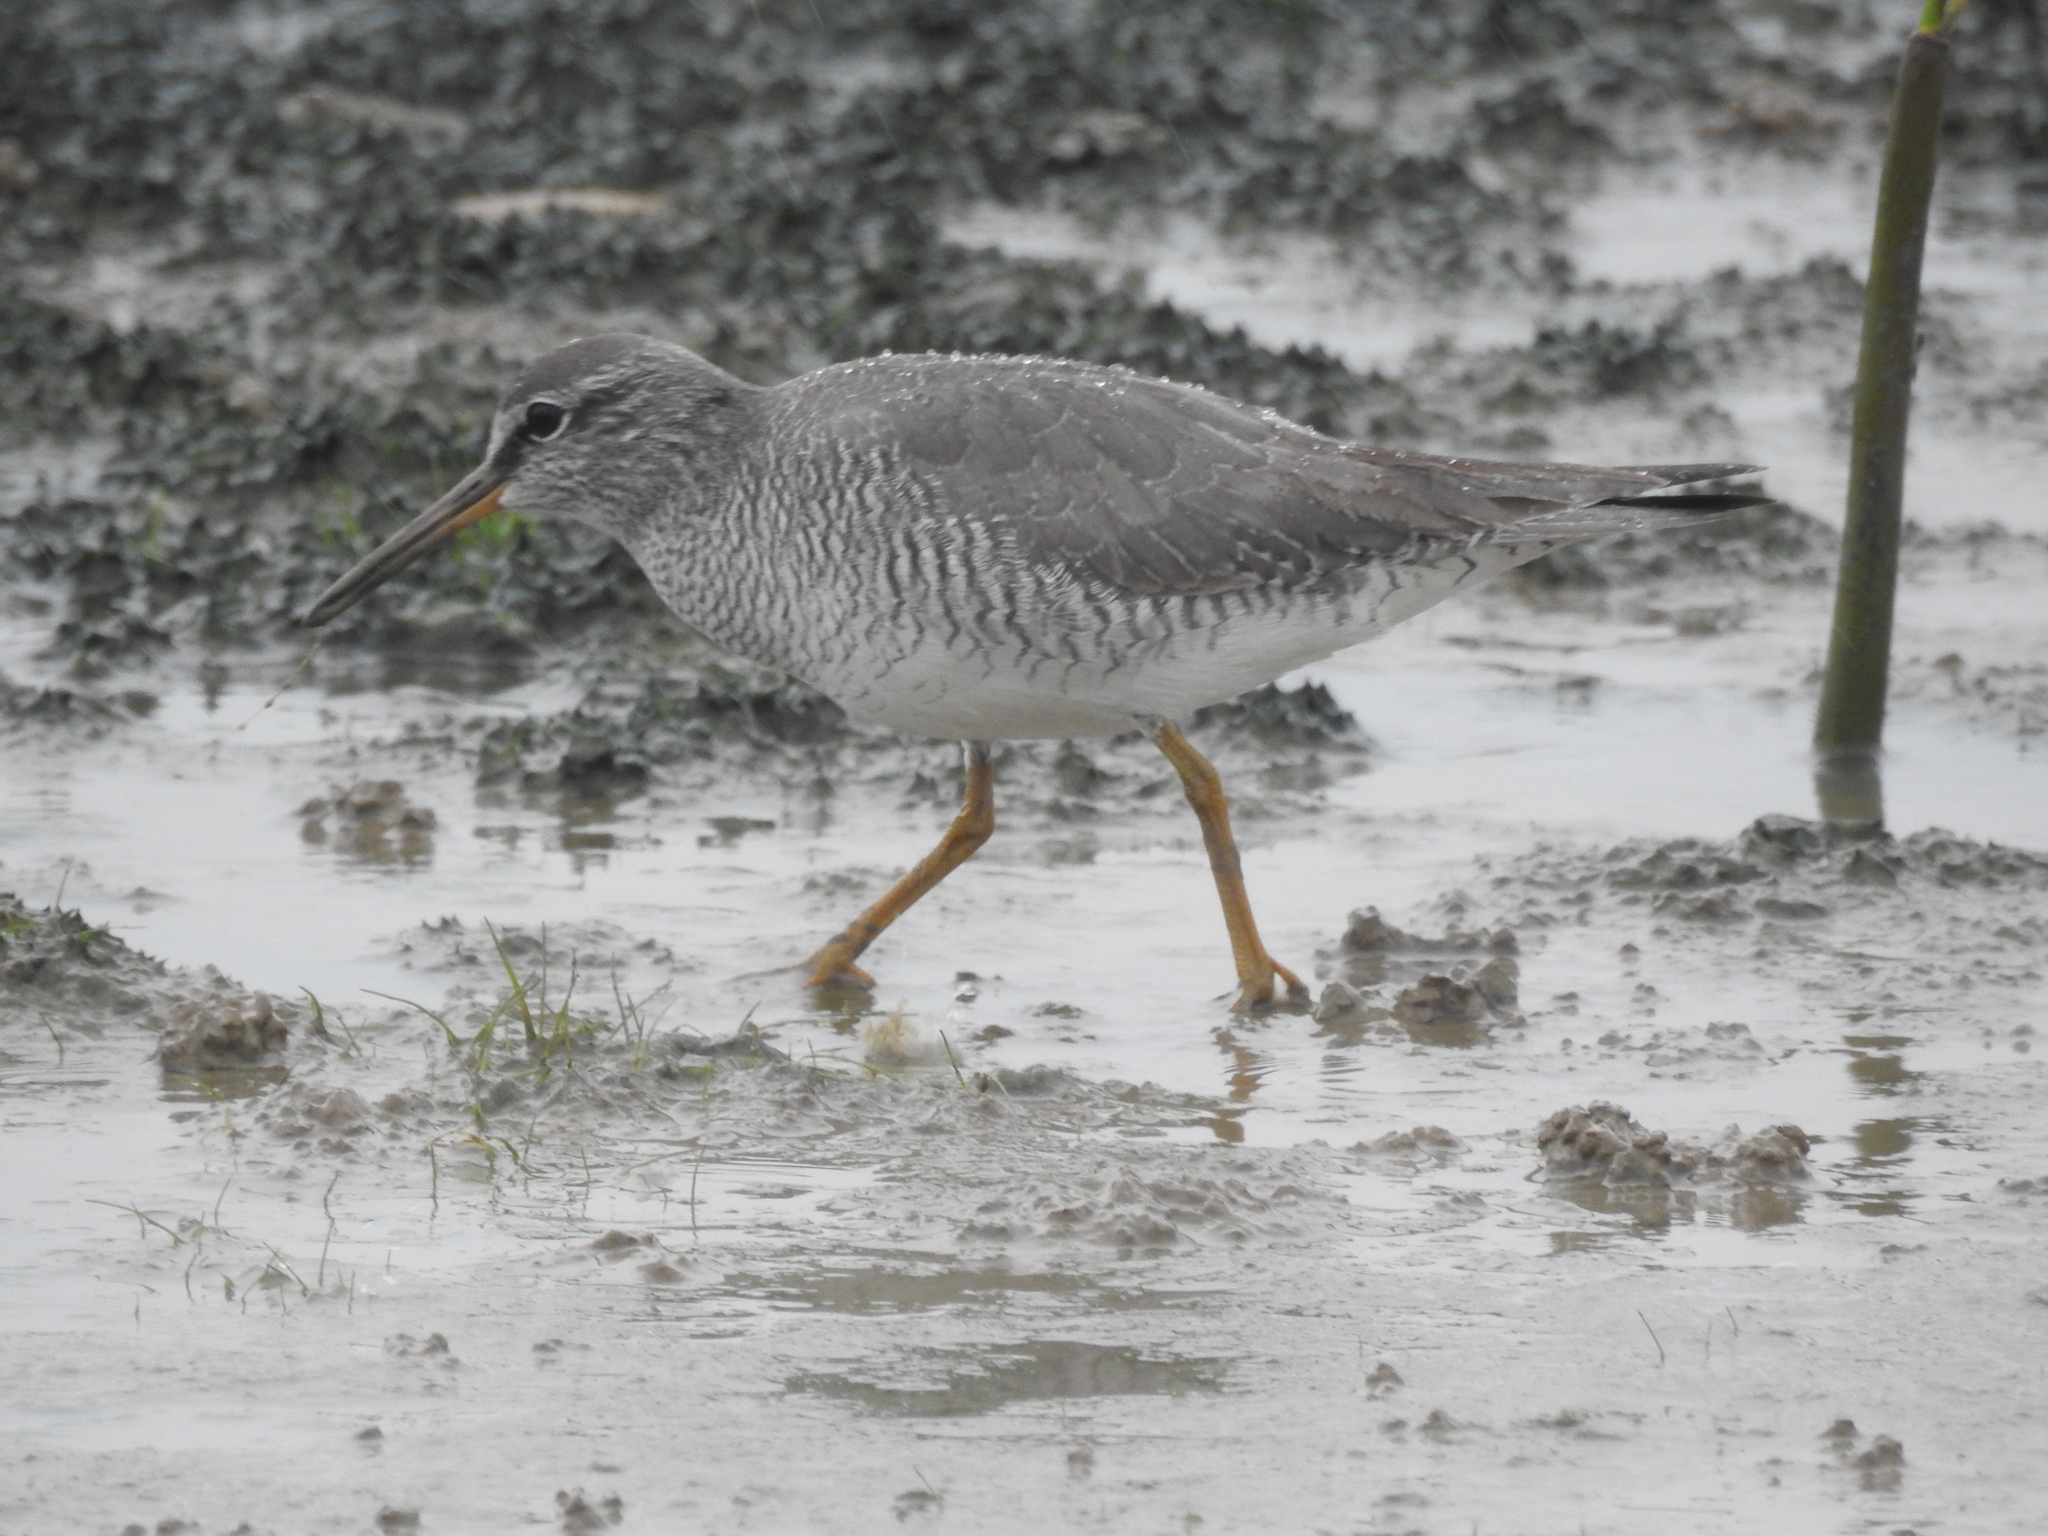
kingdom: Animalia
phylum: Chordata
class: Aves
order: Charadriiformes
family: Scolopacidae
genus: Tringa
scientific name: Tringa brevipes
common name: Grey-tailed tattler
